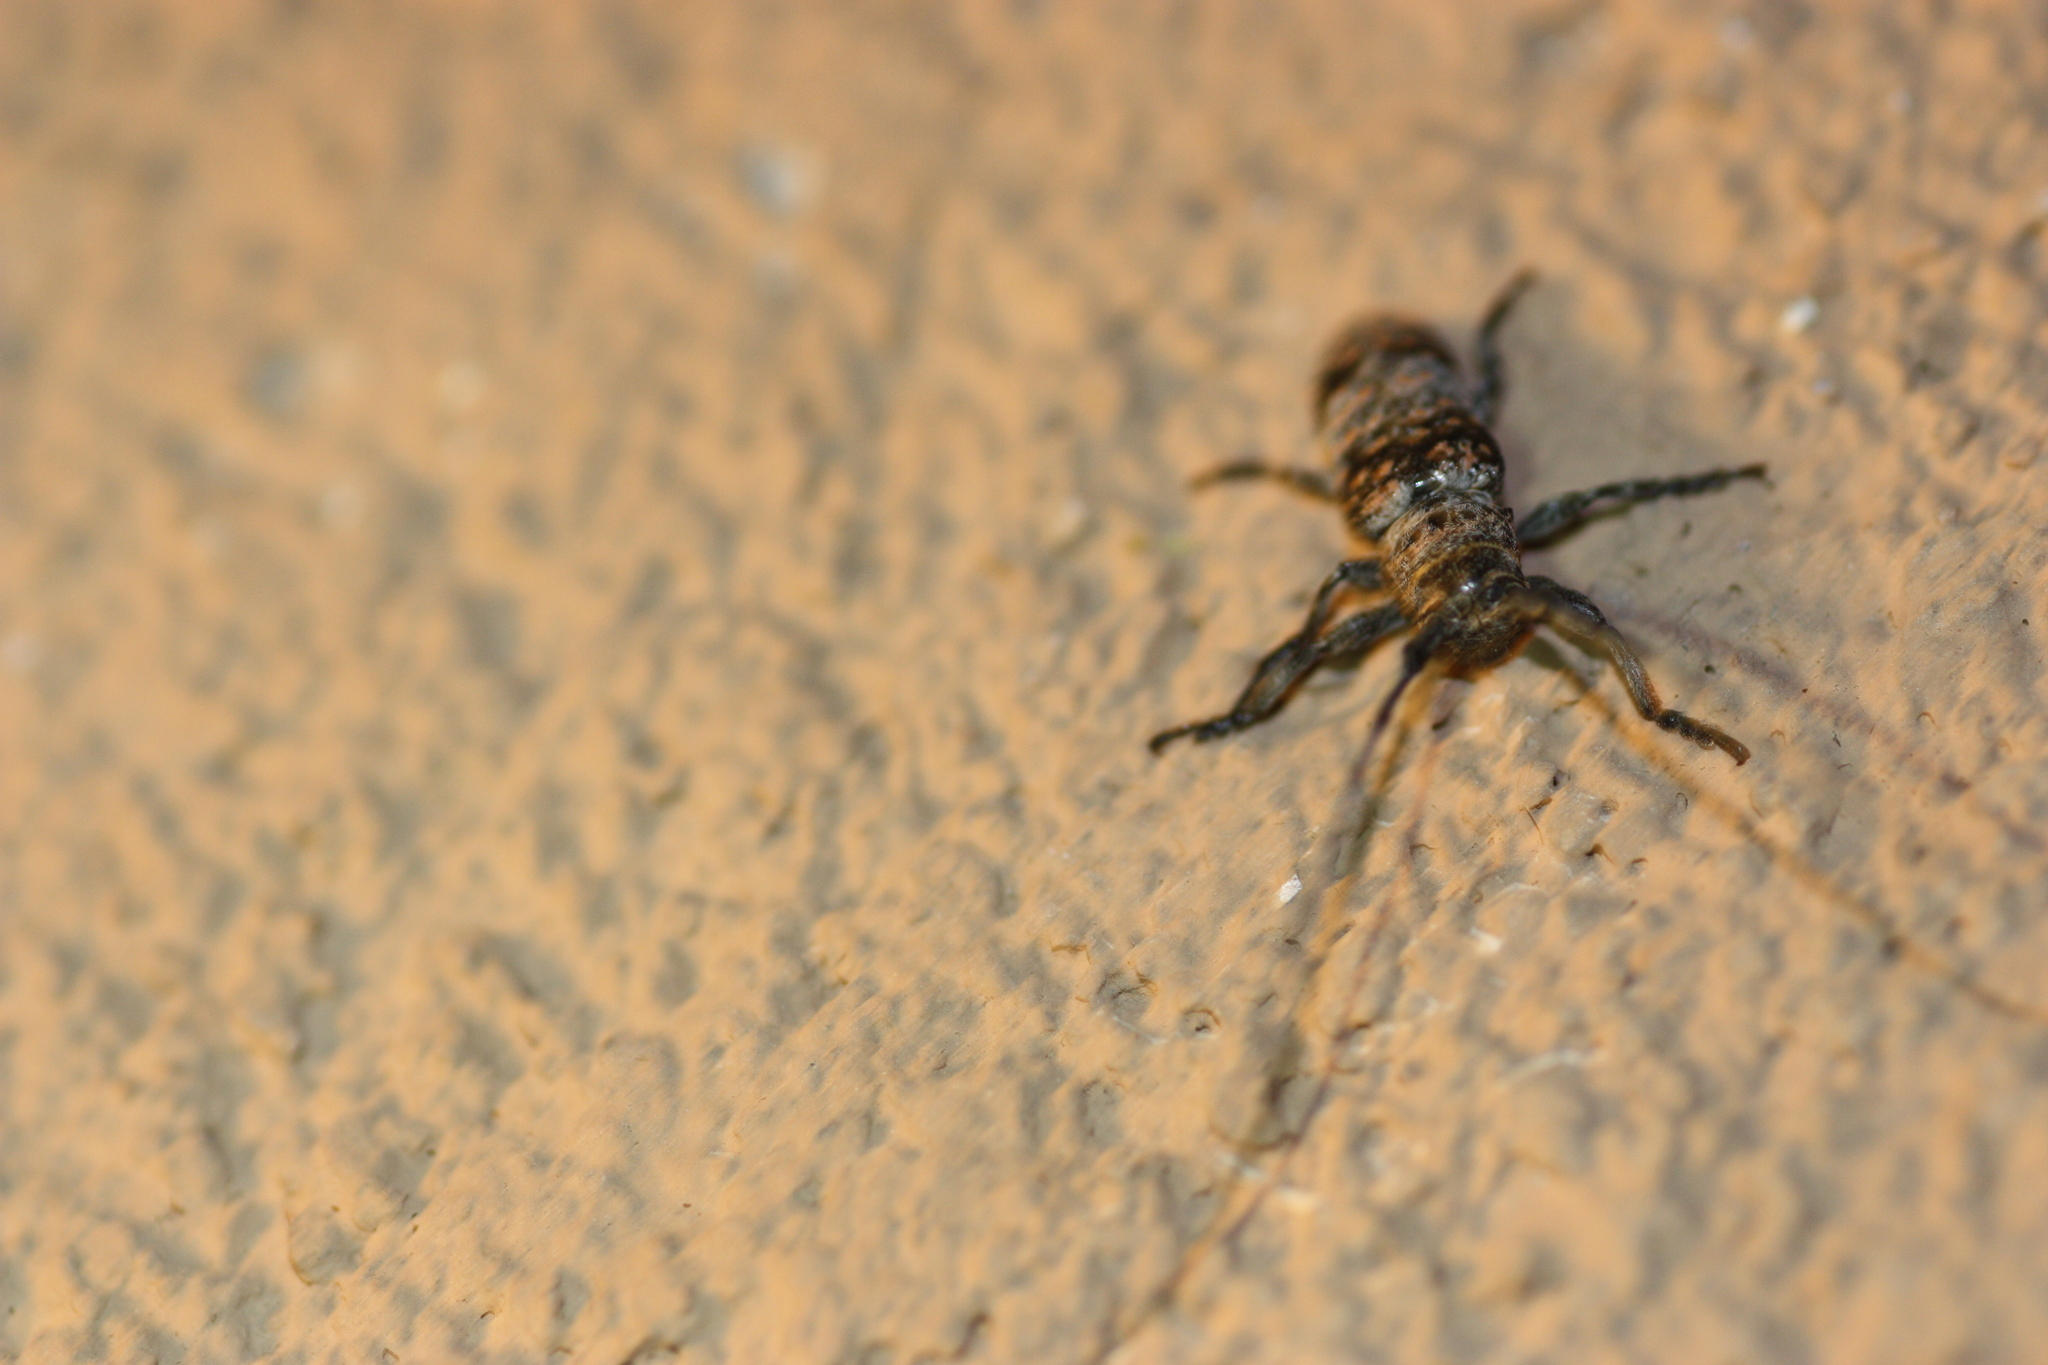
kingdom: Animalia
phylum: Arthropoda
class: Insecta
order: Coleoptera
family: Cerambycidae
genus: Oncideres
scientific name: Oncideres rhodosticta
